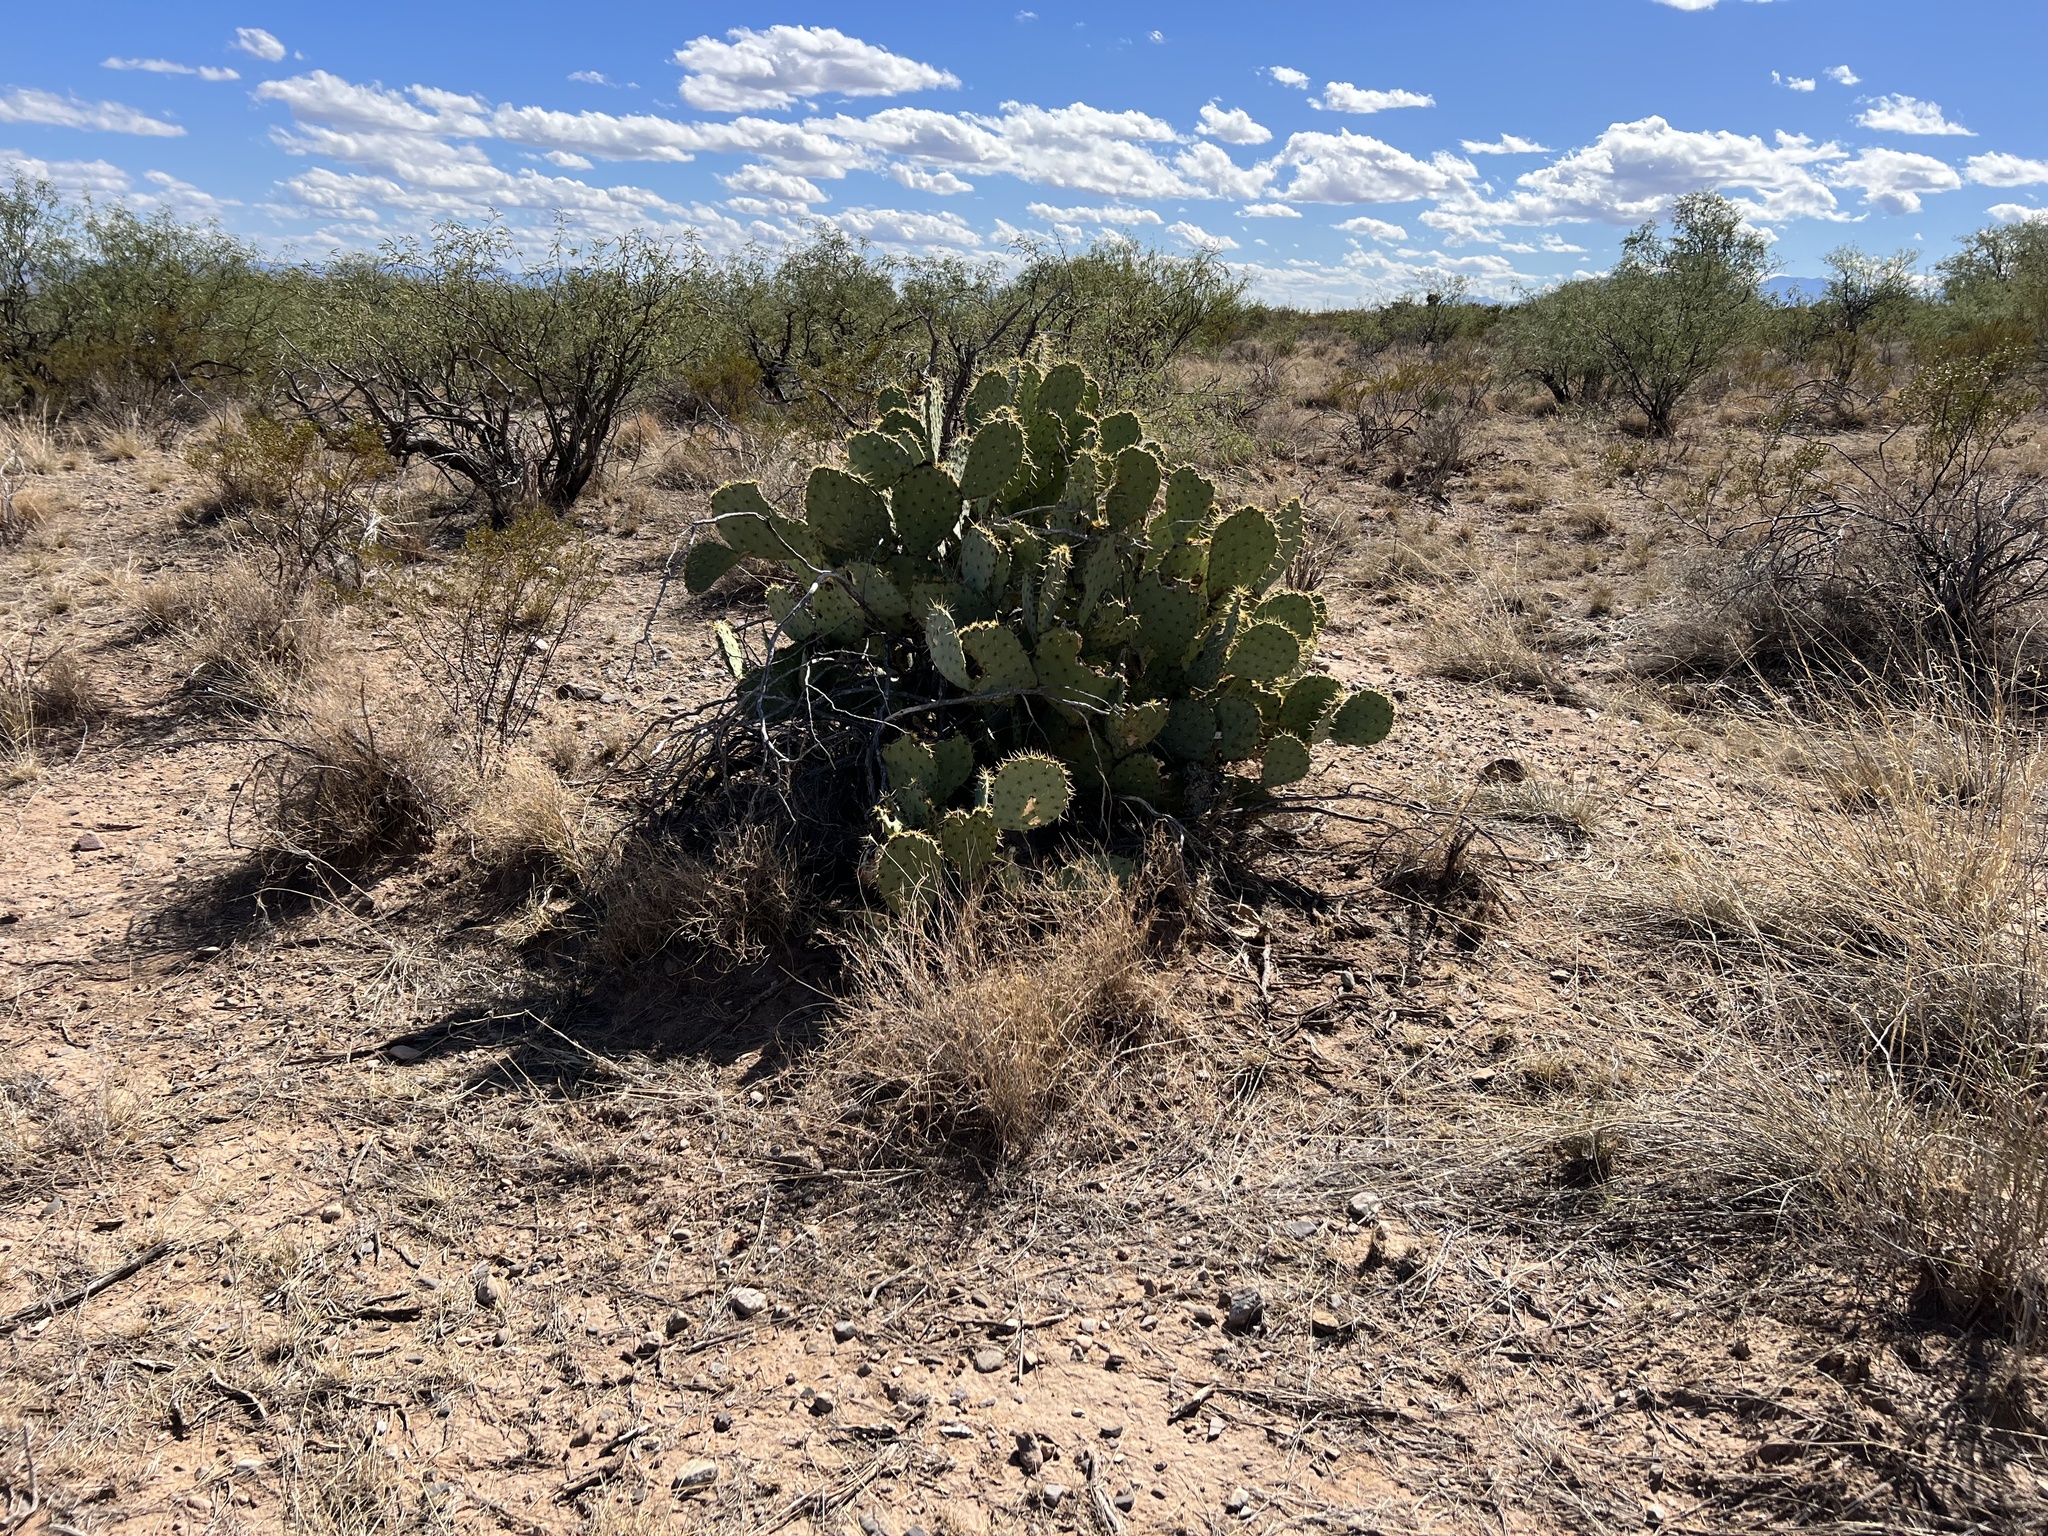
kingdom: Plantae
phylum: Tracheophyta
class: Magnoliopsida
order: Caryophyllales
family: Cactaceae
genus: Opuntia
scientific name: Opuntia engelmannii
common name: Cactus-apple
